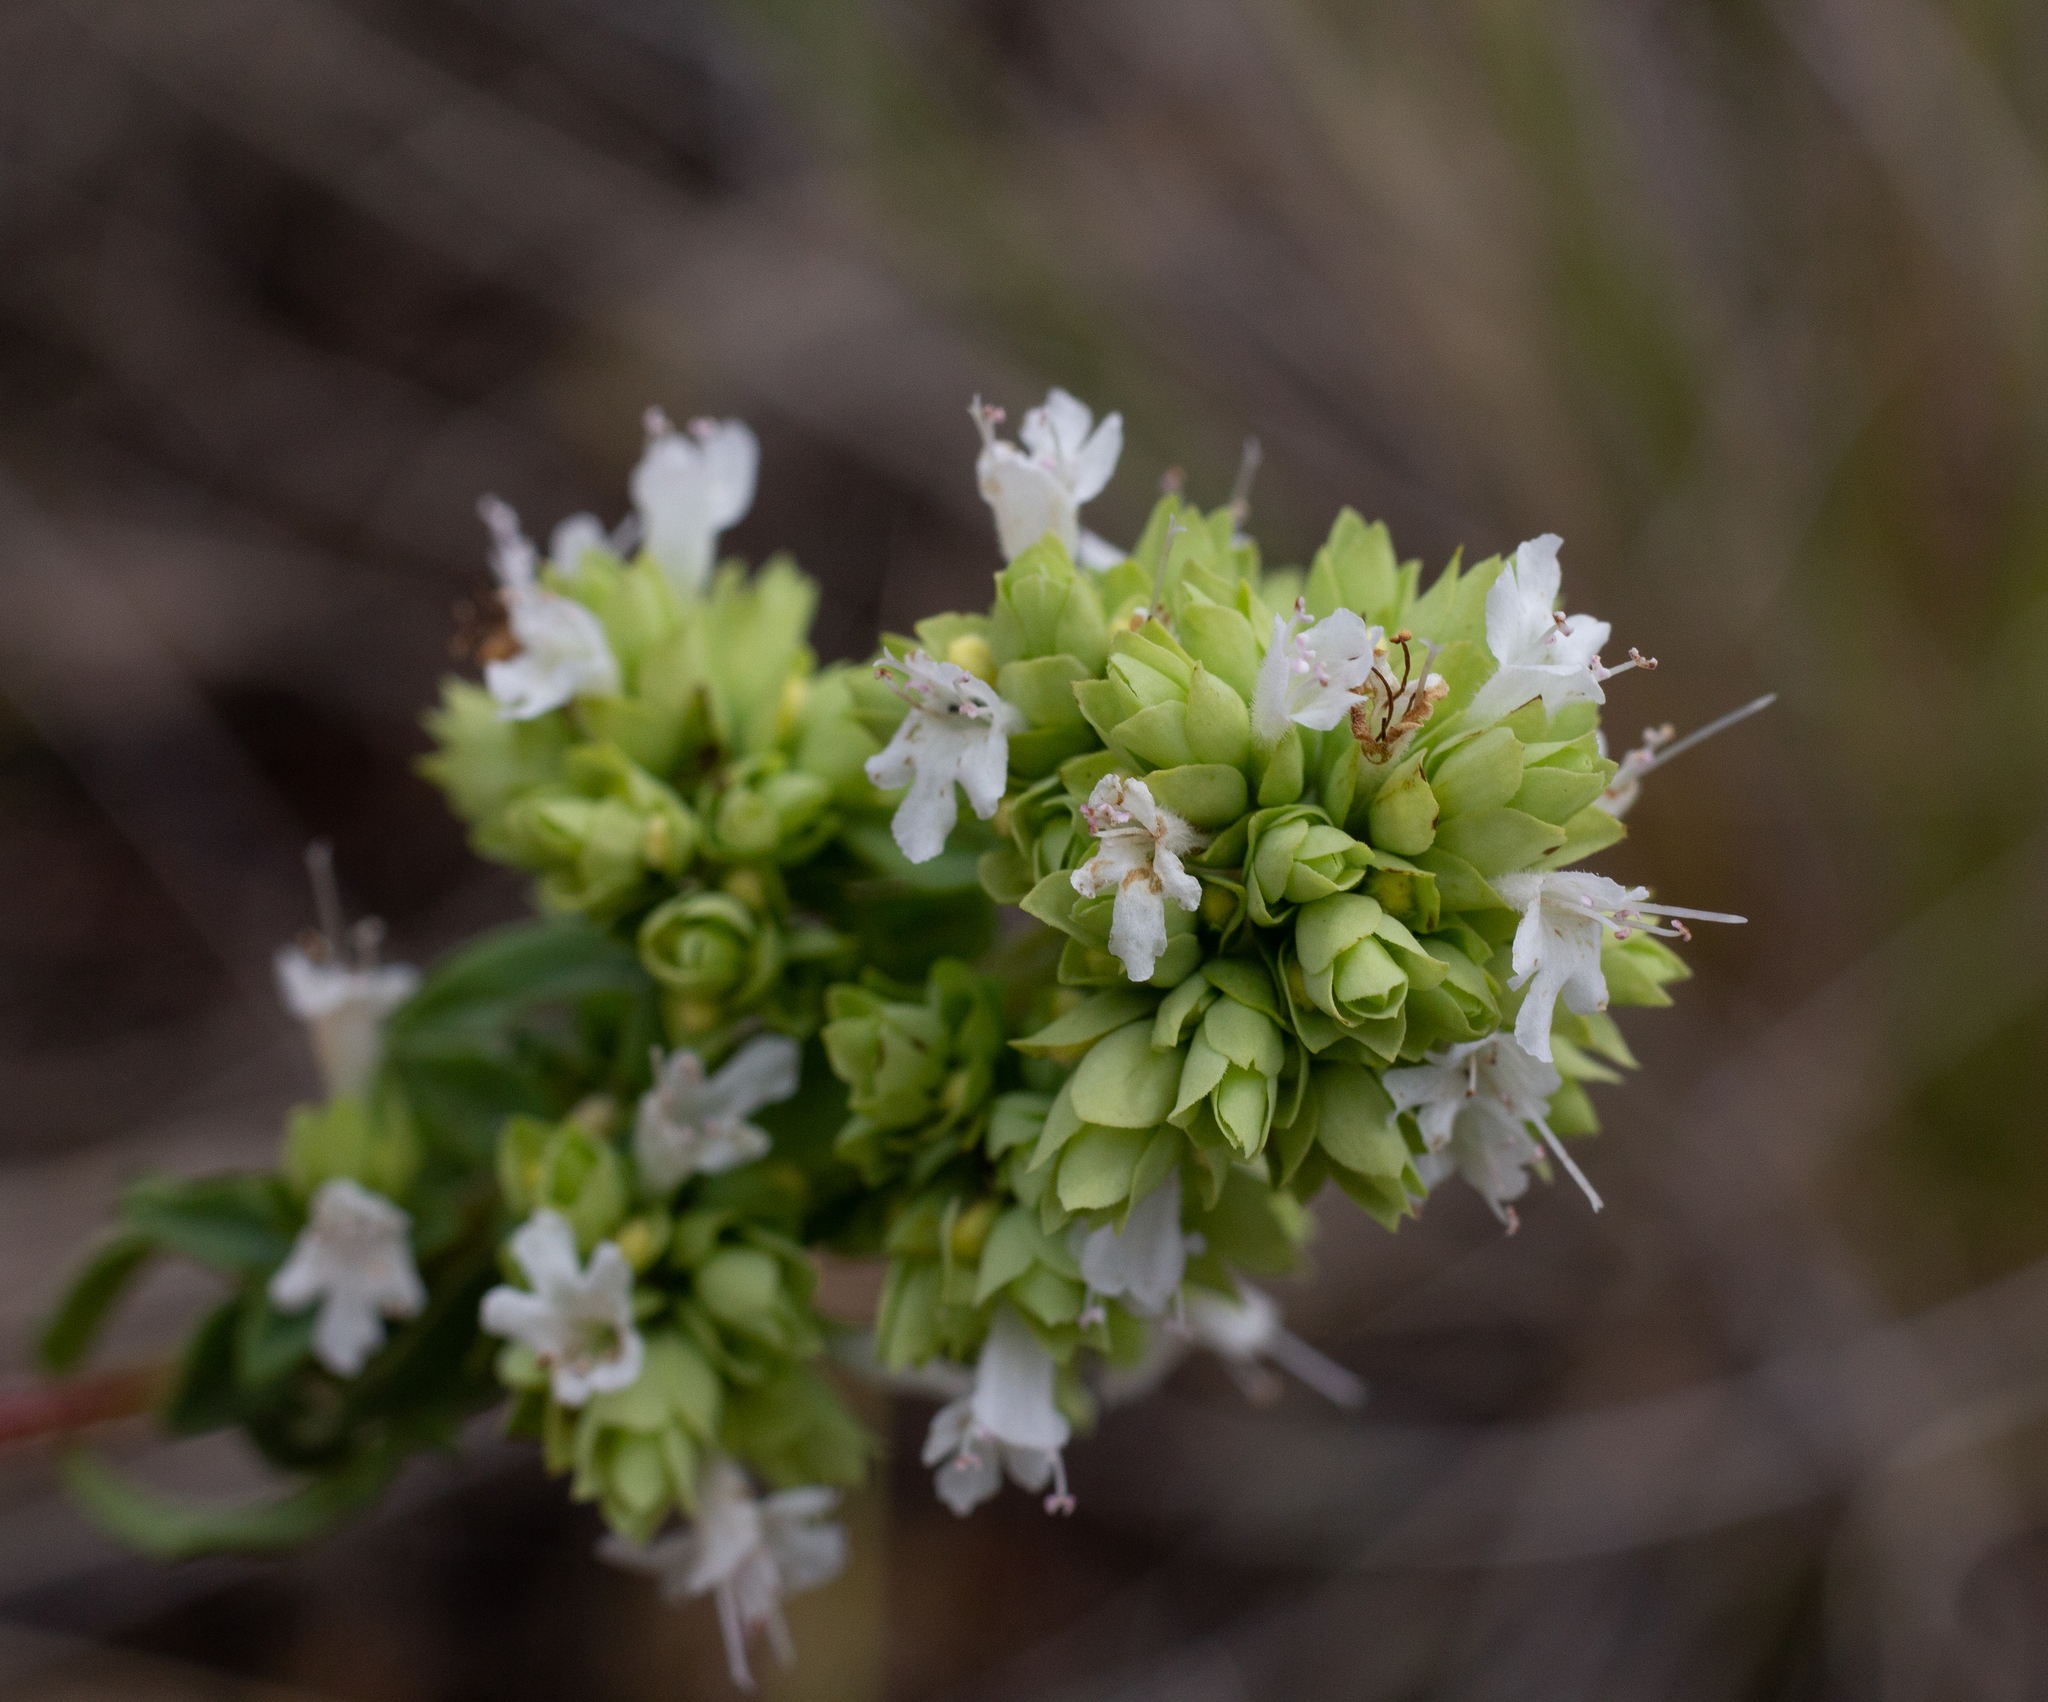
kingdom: Plantae
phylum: Tracheophyta
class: Magnoliopsida
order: Lamiales
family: Lamiaceae
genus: Origanum
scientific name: Origanum vulgare
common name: Wild marjoram
